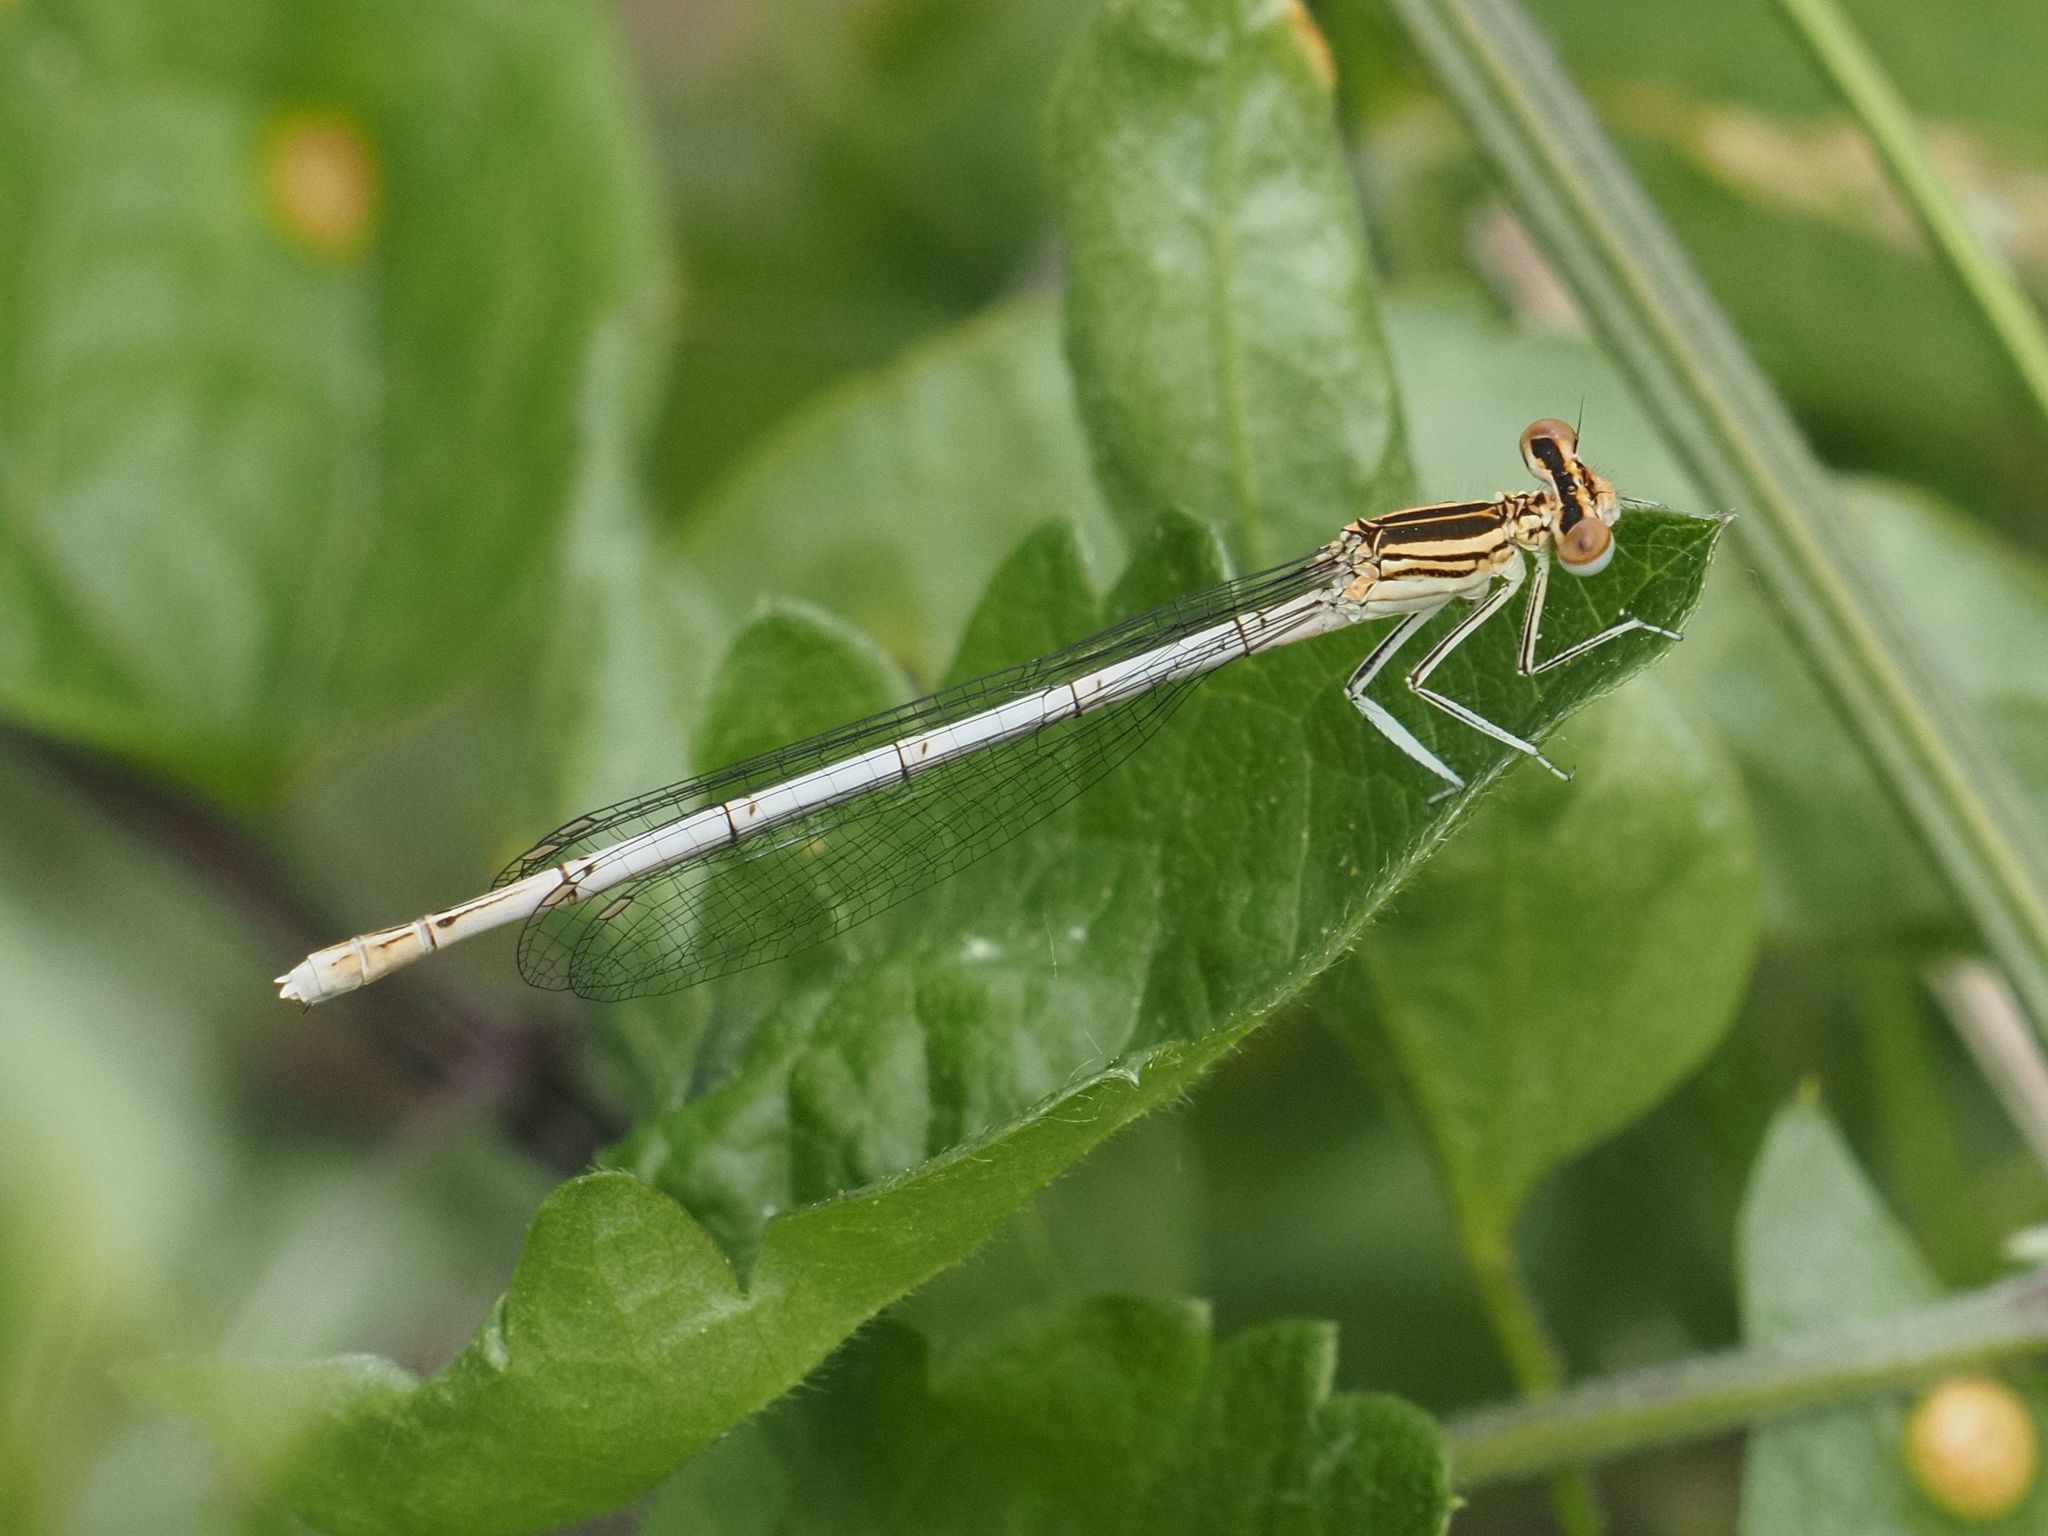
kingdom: Animalia
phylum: Arthropoda
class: Insecta
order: Odonata
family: Platycnemididae
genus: Platycnemis
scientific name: Platycnemis pennipes
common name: White-legged damselfly
